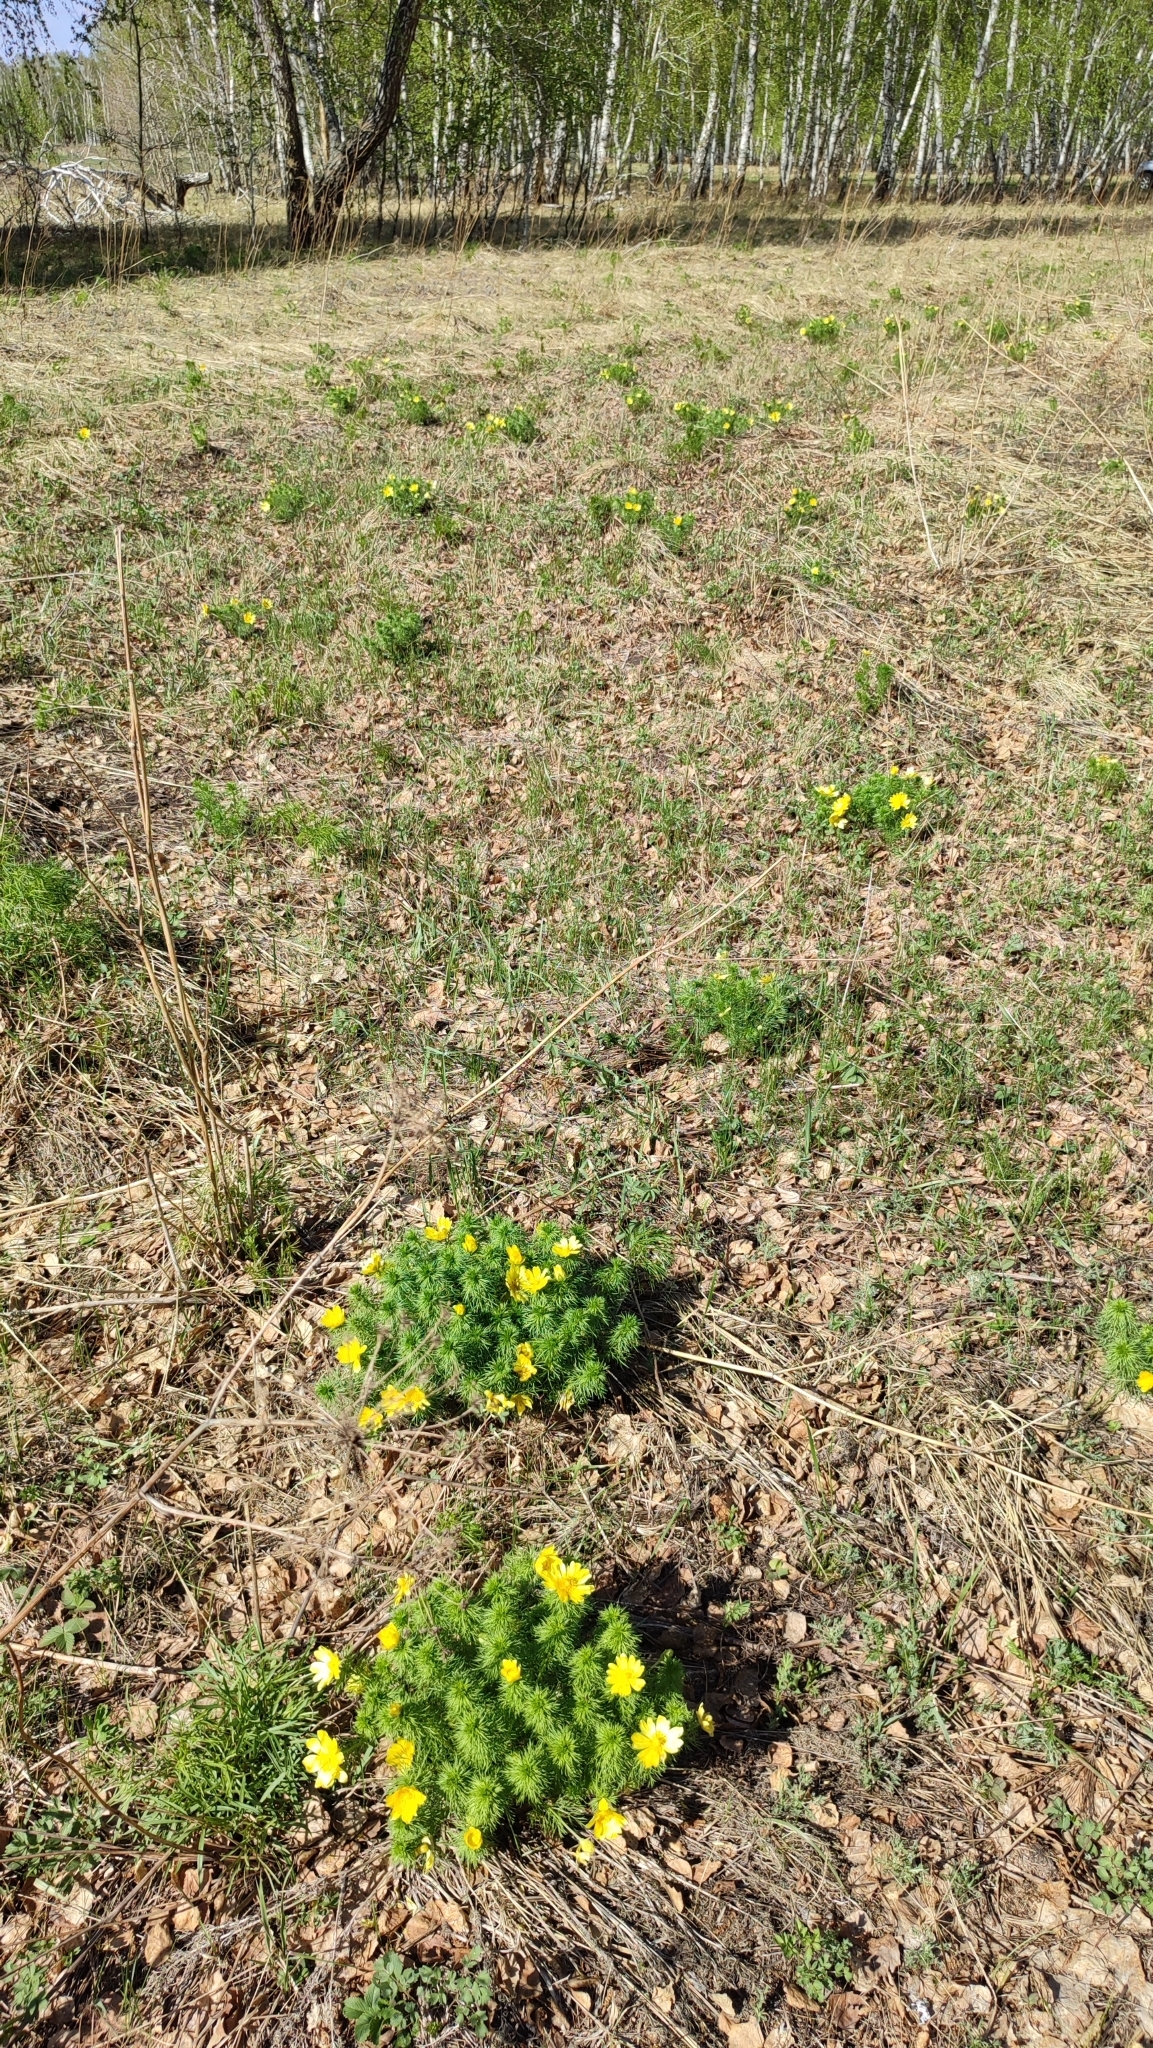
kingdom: Plantae
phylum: Tracheophyta
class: Magnoliopsida
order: Ranunculales
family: Ranunculaceae
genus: Adonis
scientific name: Adonis vernalis
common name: Yellow pheasants-eye
